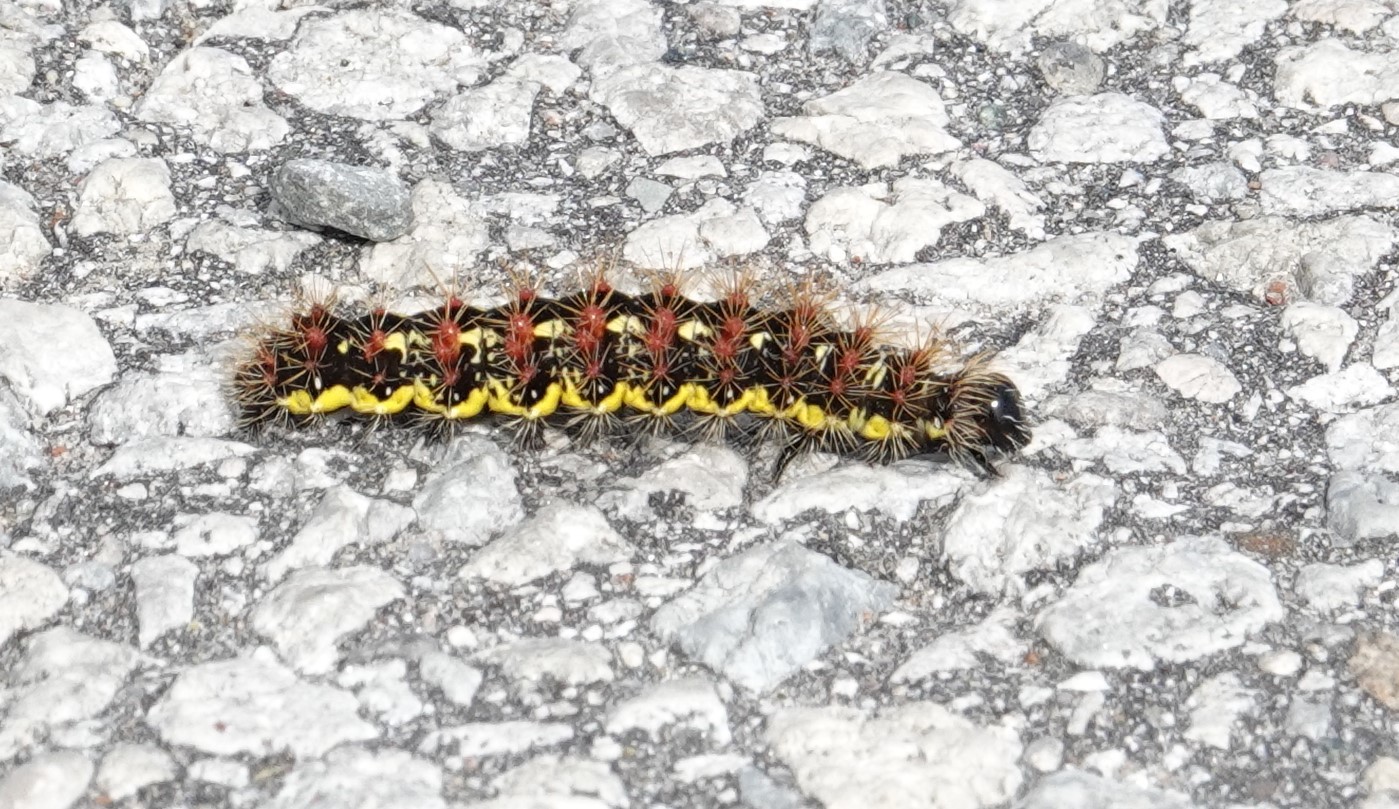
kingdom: Animalia
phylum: Arthropoda
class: Insecta
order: Lepidoptera
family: Noctuidae
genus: Acronicta
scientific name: Acronicta oblinita
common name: Smeared dagger
